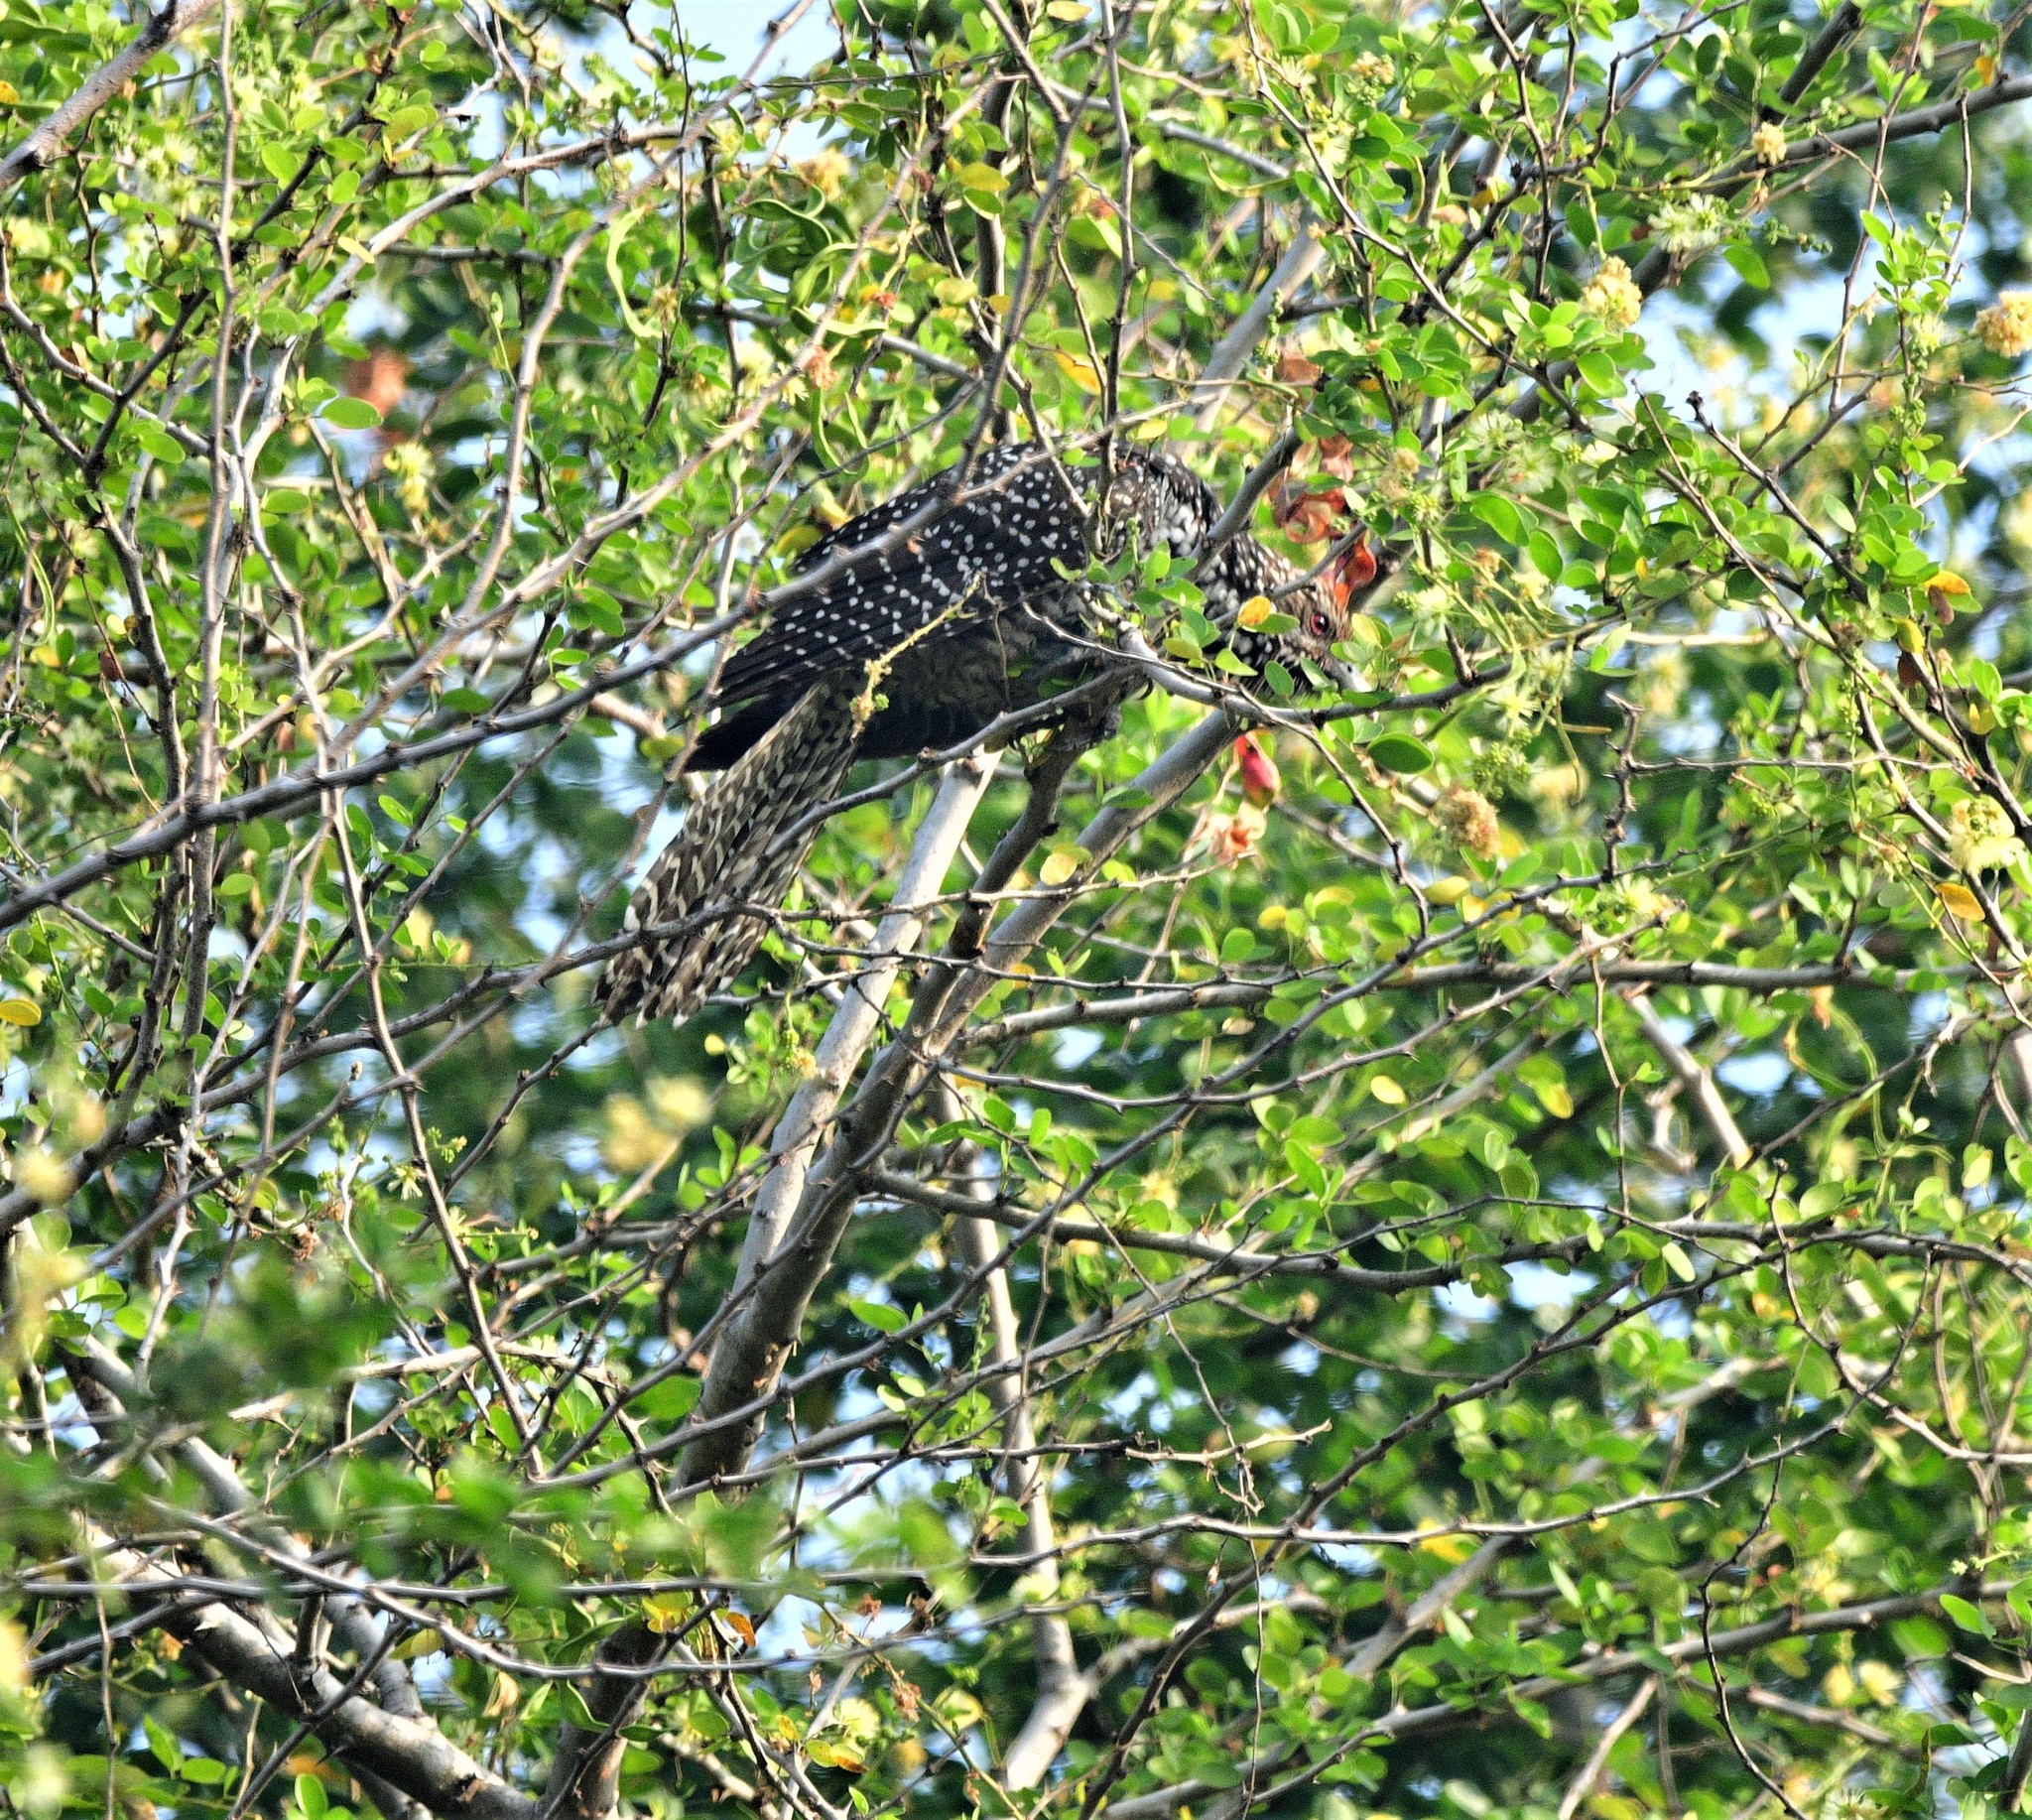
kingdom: Animalia
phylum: Chordata
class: Aves
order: Cuculiformes
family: Cuculidae
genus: Eudynamys
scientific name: Eudynamys scolopaceus
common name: Asian koel
